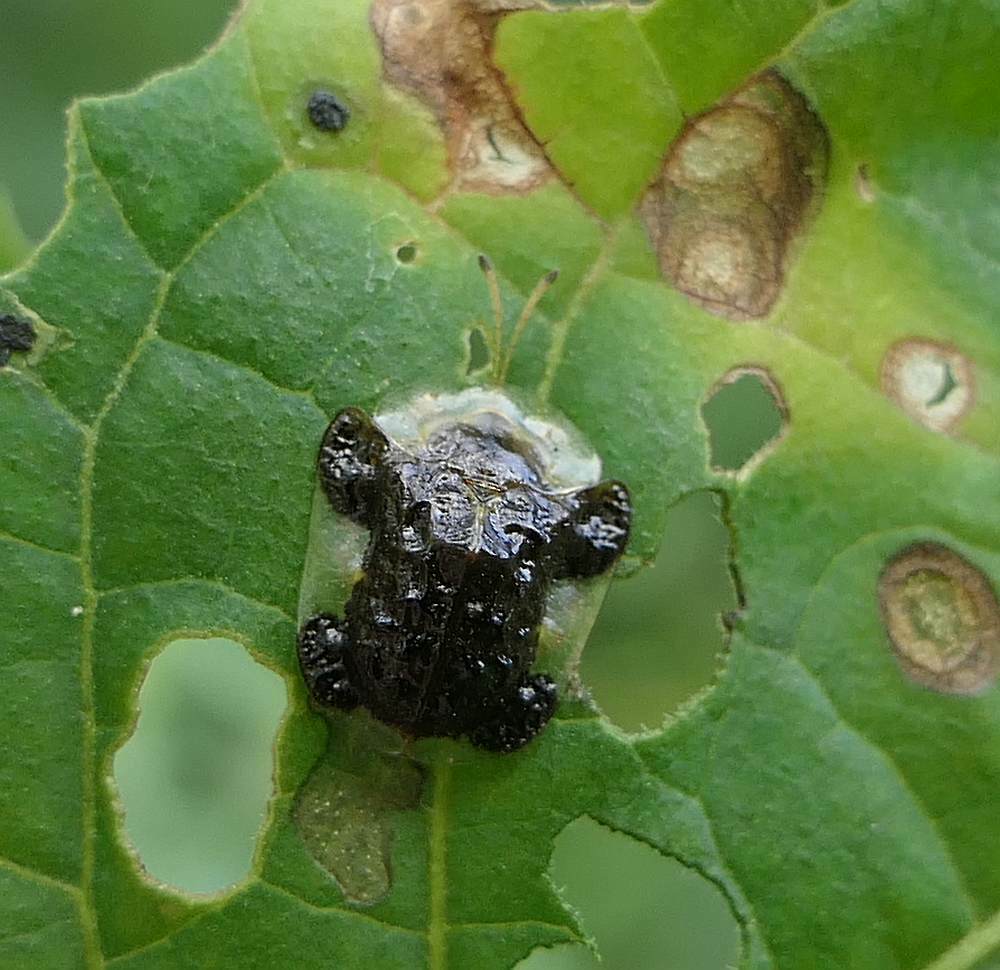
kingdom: Animalia
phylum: Arthropoda
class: Insecta
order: Coleoptera
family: Chrysomelidae
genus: Helocassis
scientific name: Helocassis clavata
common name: Clavate tortoise beetle
